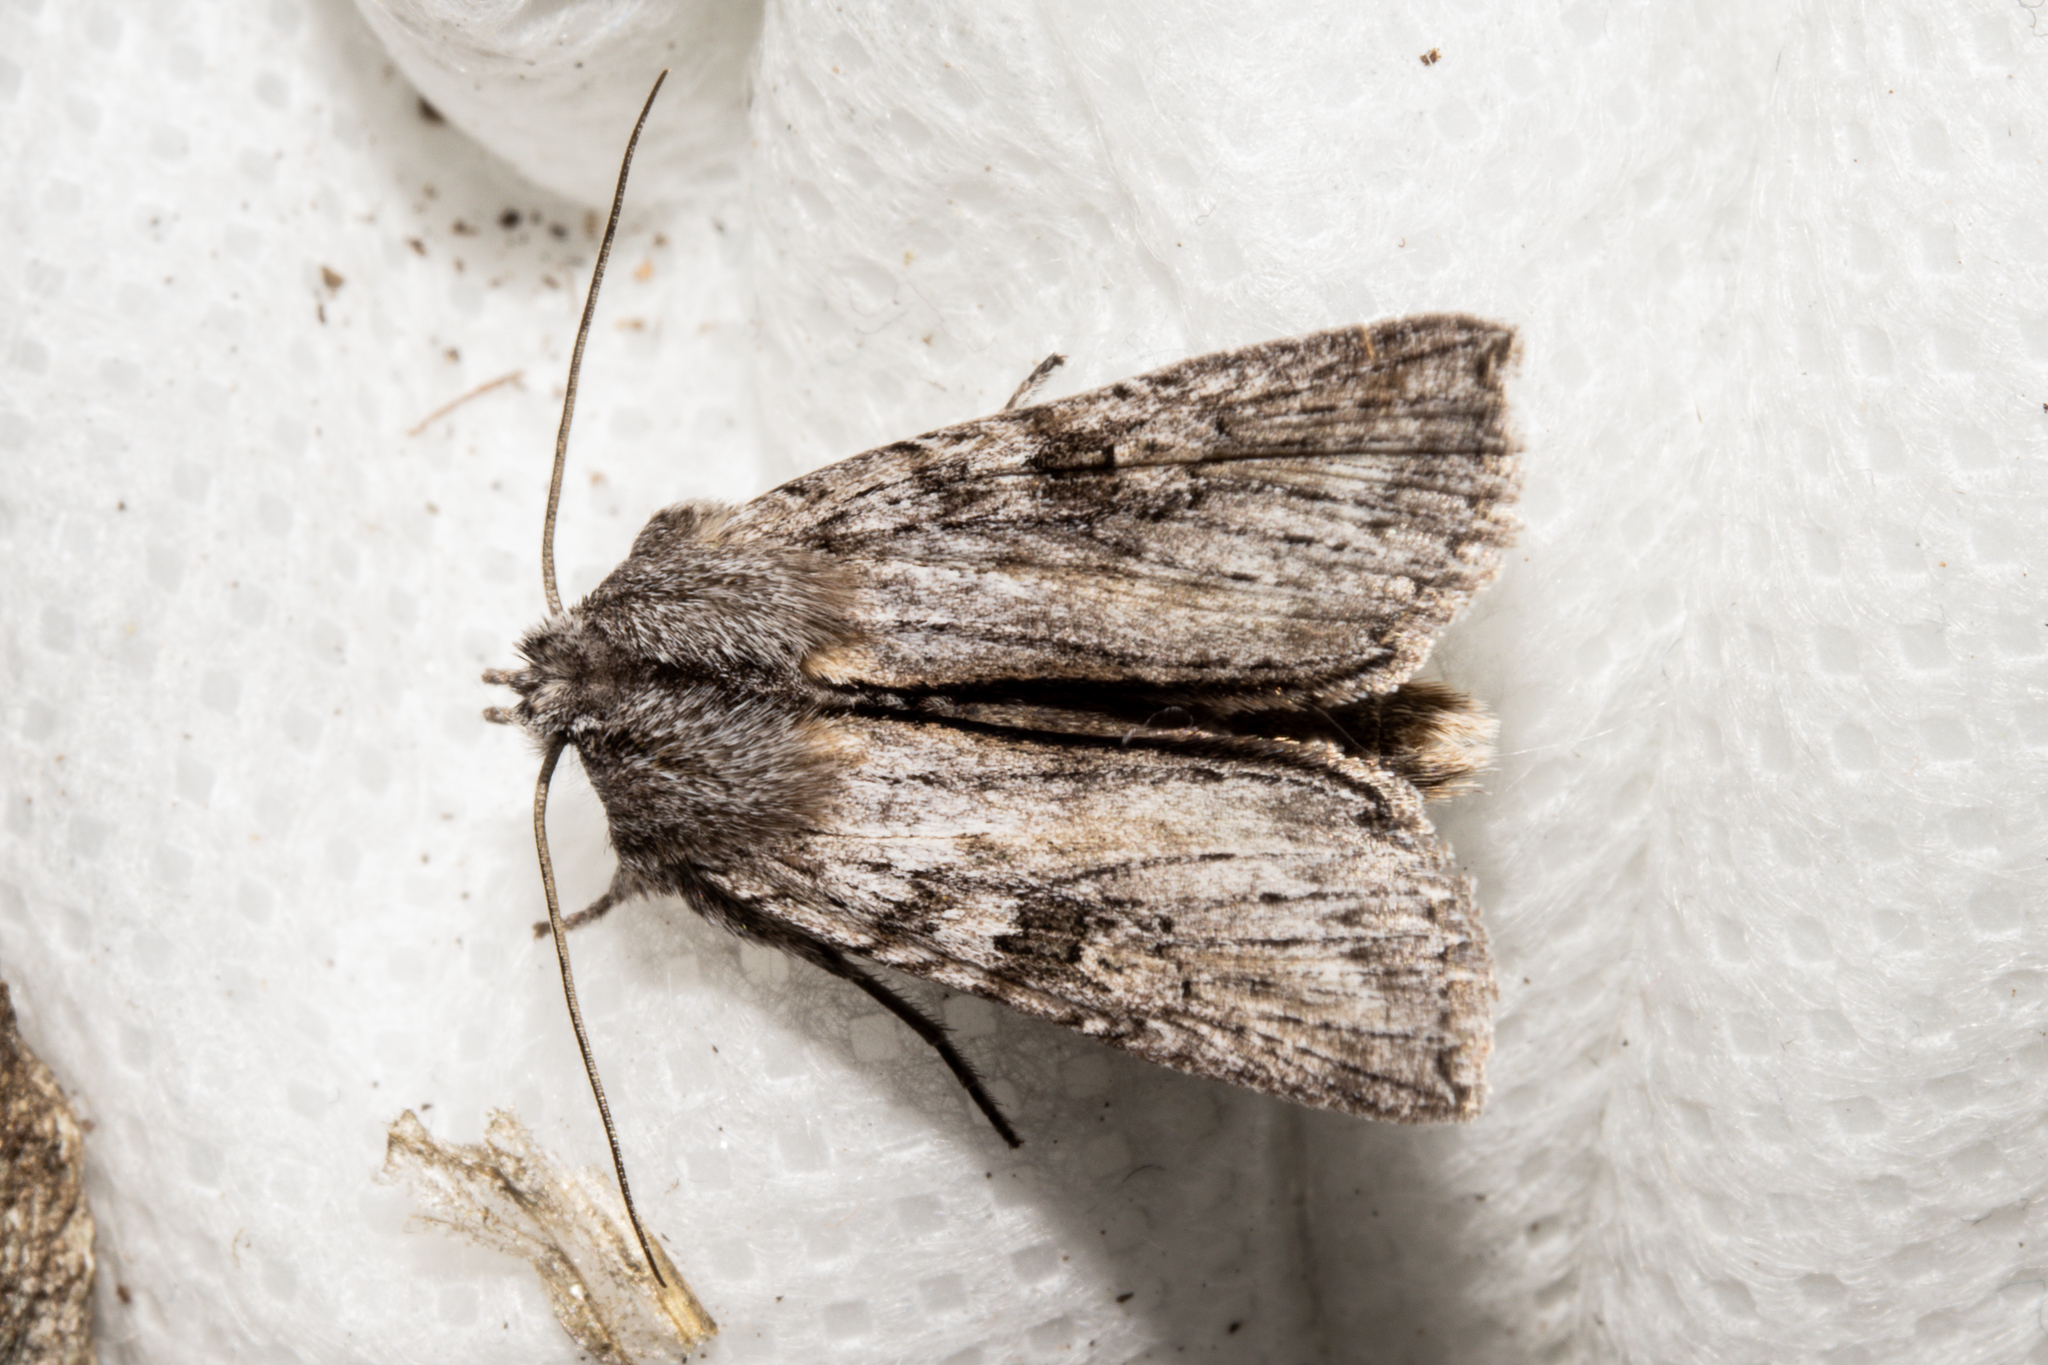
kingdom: Animalia
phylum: Arthropoda
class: Insecta
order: Lepidoptera
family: Noctuidae
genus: Physetica
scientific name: Physetica phricias
